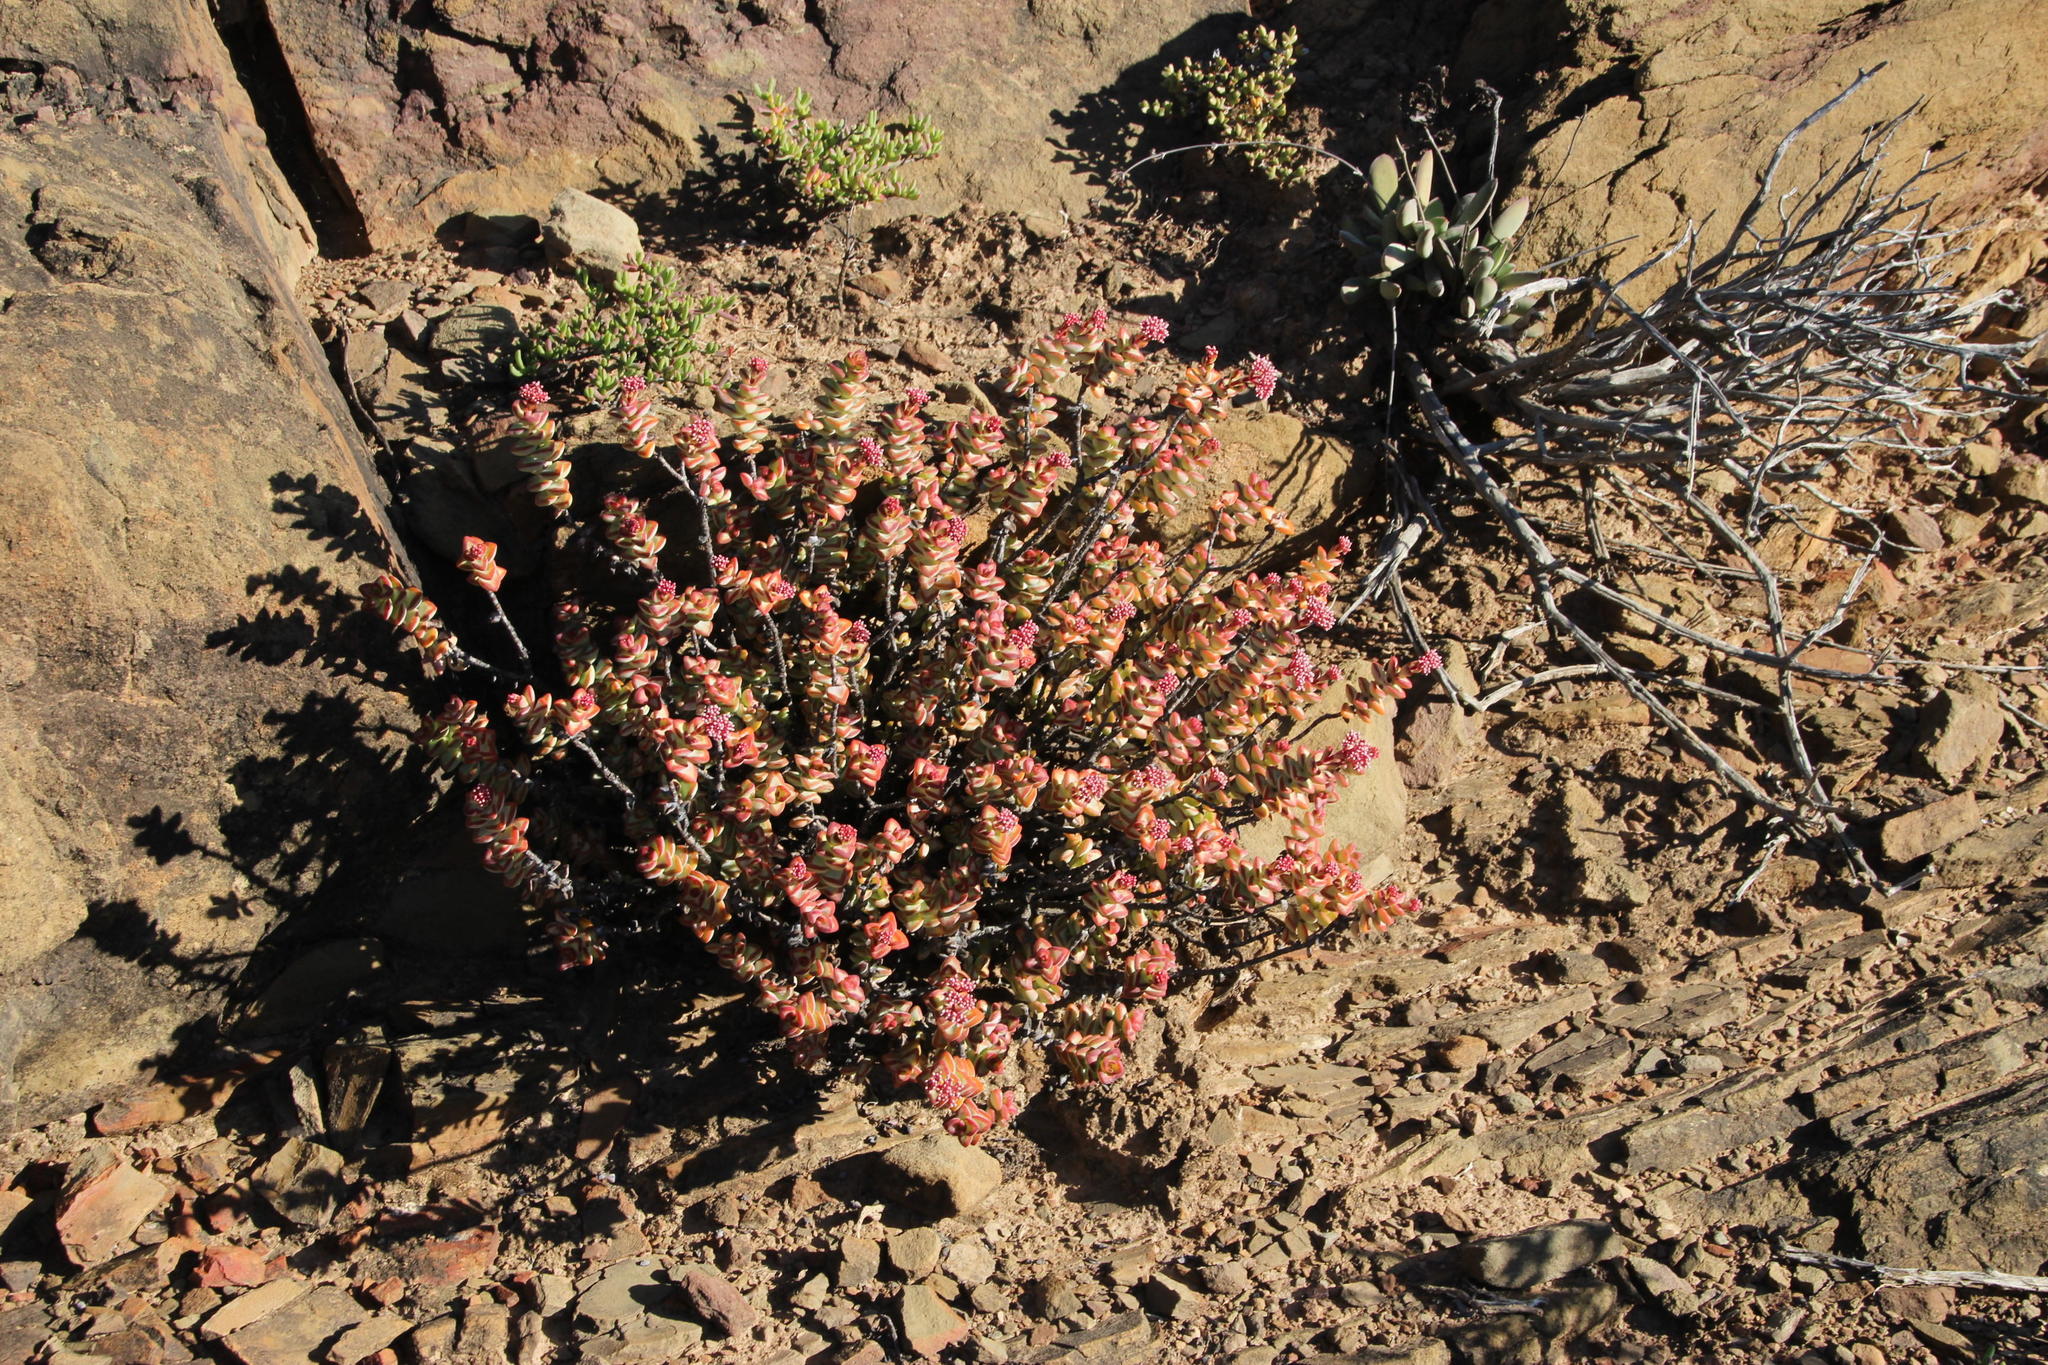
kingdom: Plantae
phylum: Tracheophyta
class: Magnoliopsida
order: Saxifragales
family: Crassulaceae
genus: Crassula
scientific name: Crassula rupestris
